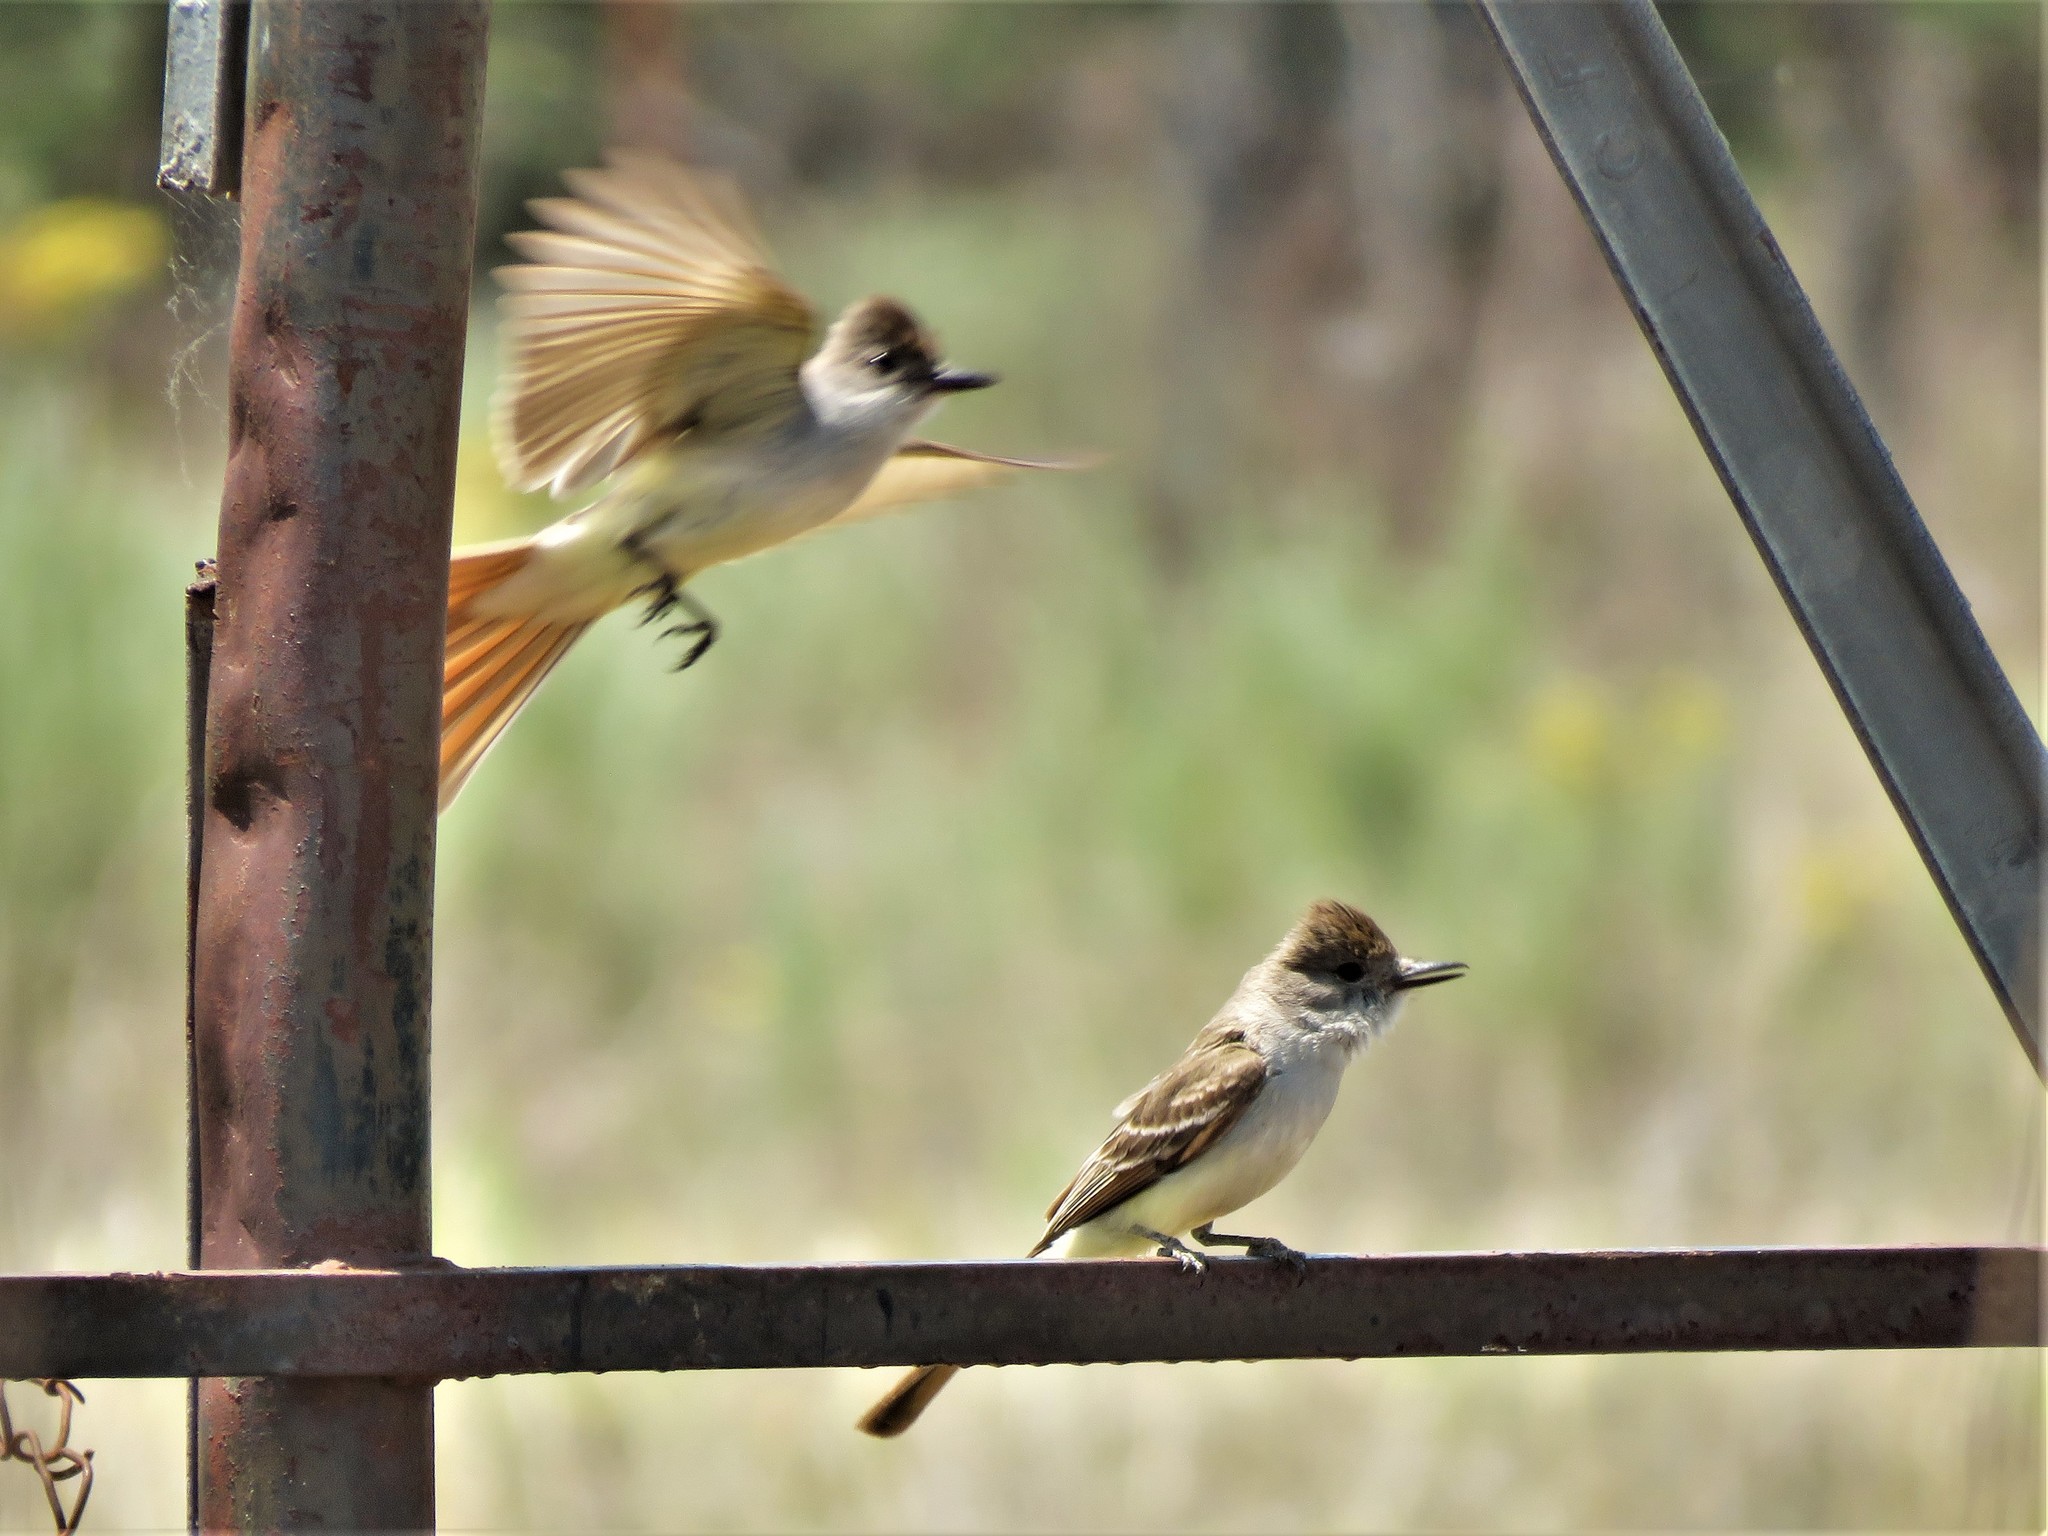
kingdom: Animalia
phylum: Chordata
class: Aves
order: Passeriformes
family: Tyrannidae
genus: Myiarchus
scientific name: Myiarchus cinerascens
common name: Ash-throated flycatcher
